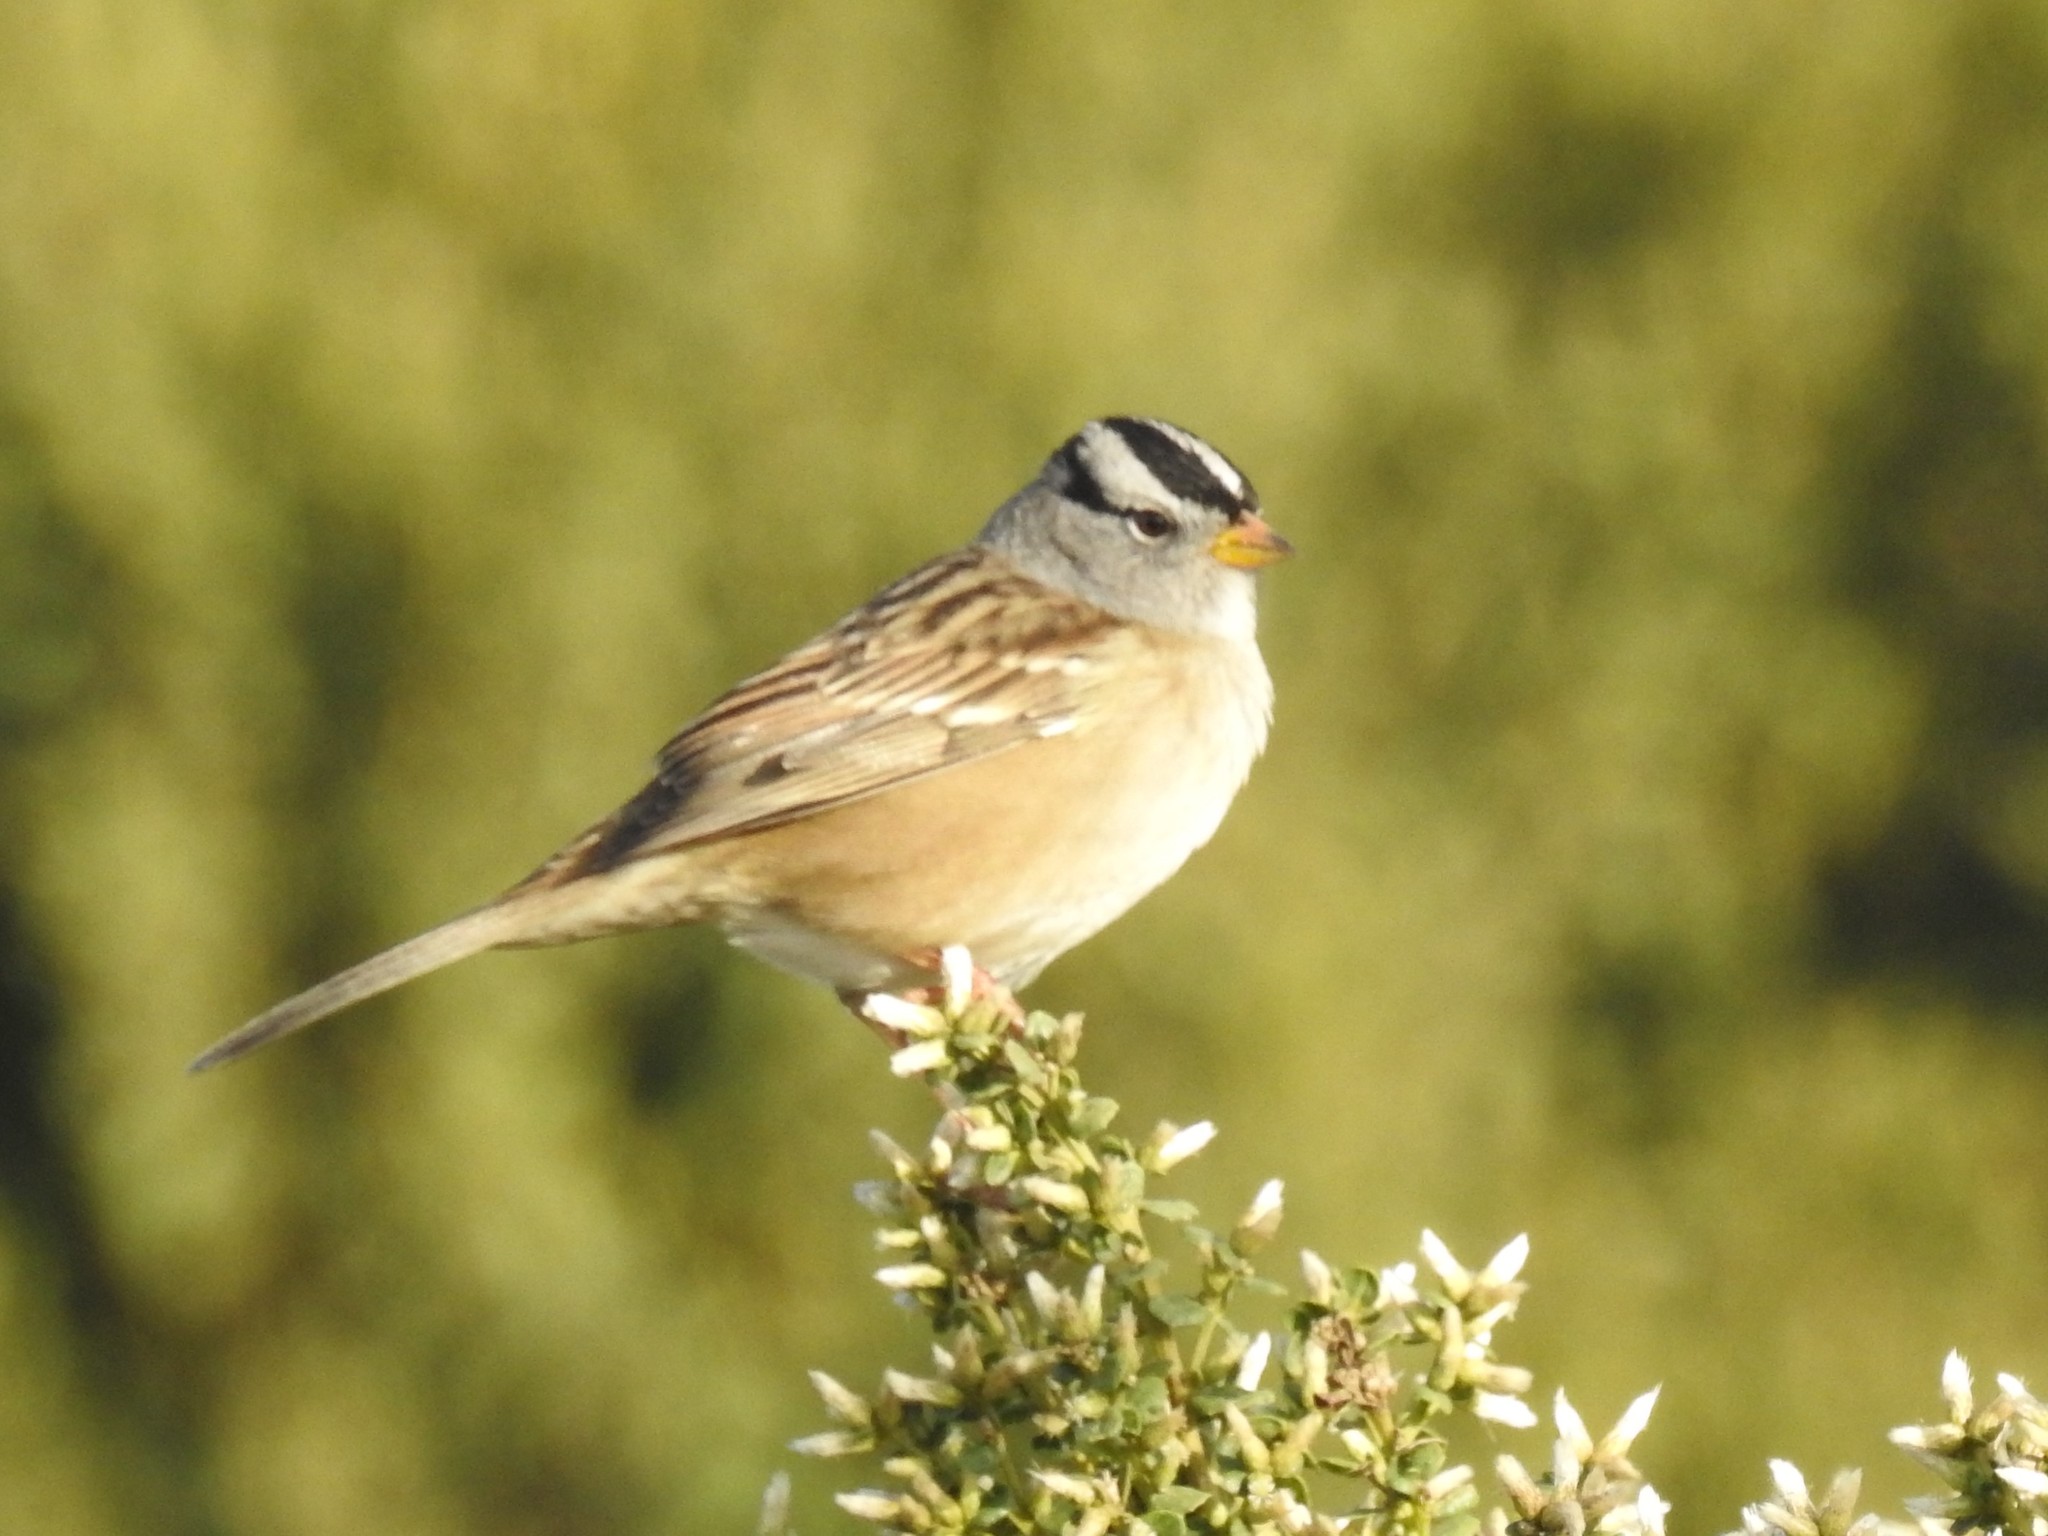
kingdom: Animalia
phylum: Chordata
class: Aves
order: Passeriformes
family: Passerellidae
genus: Zonotrichia
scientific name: Zonotrichia leucophrys
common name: White-crowned sparrow
